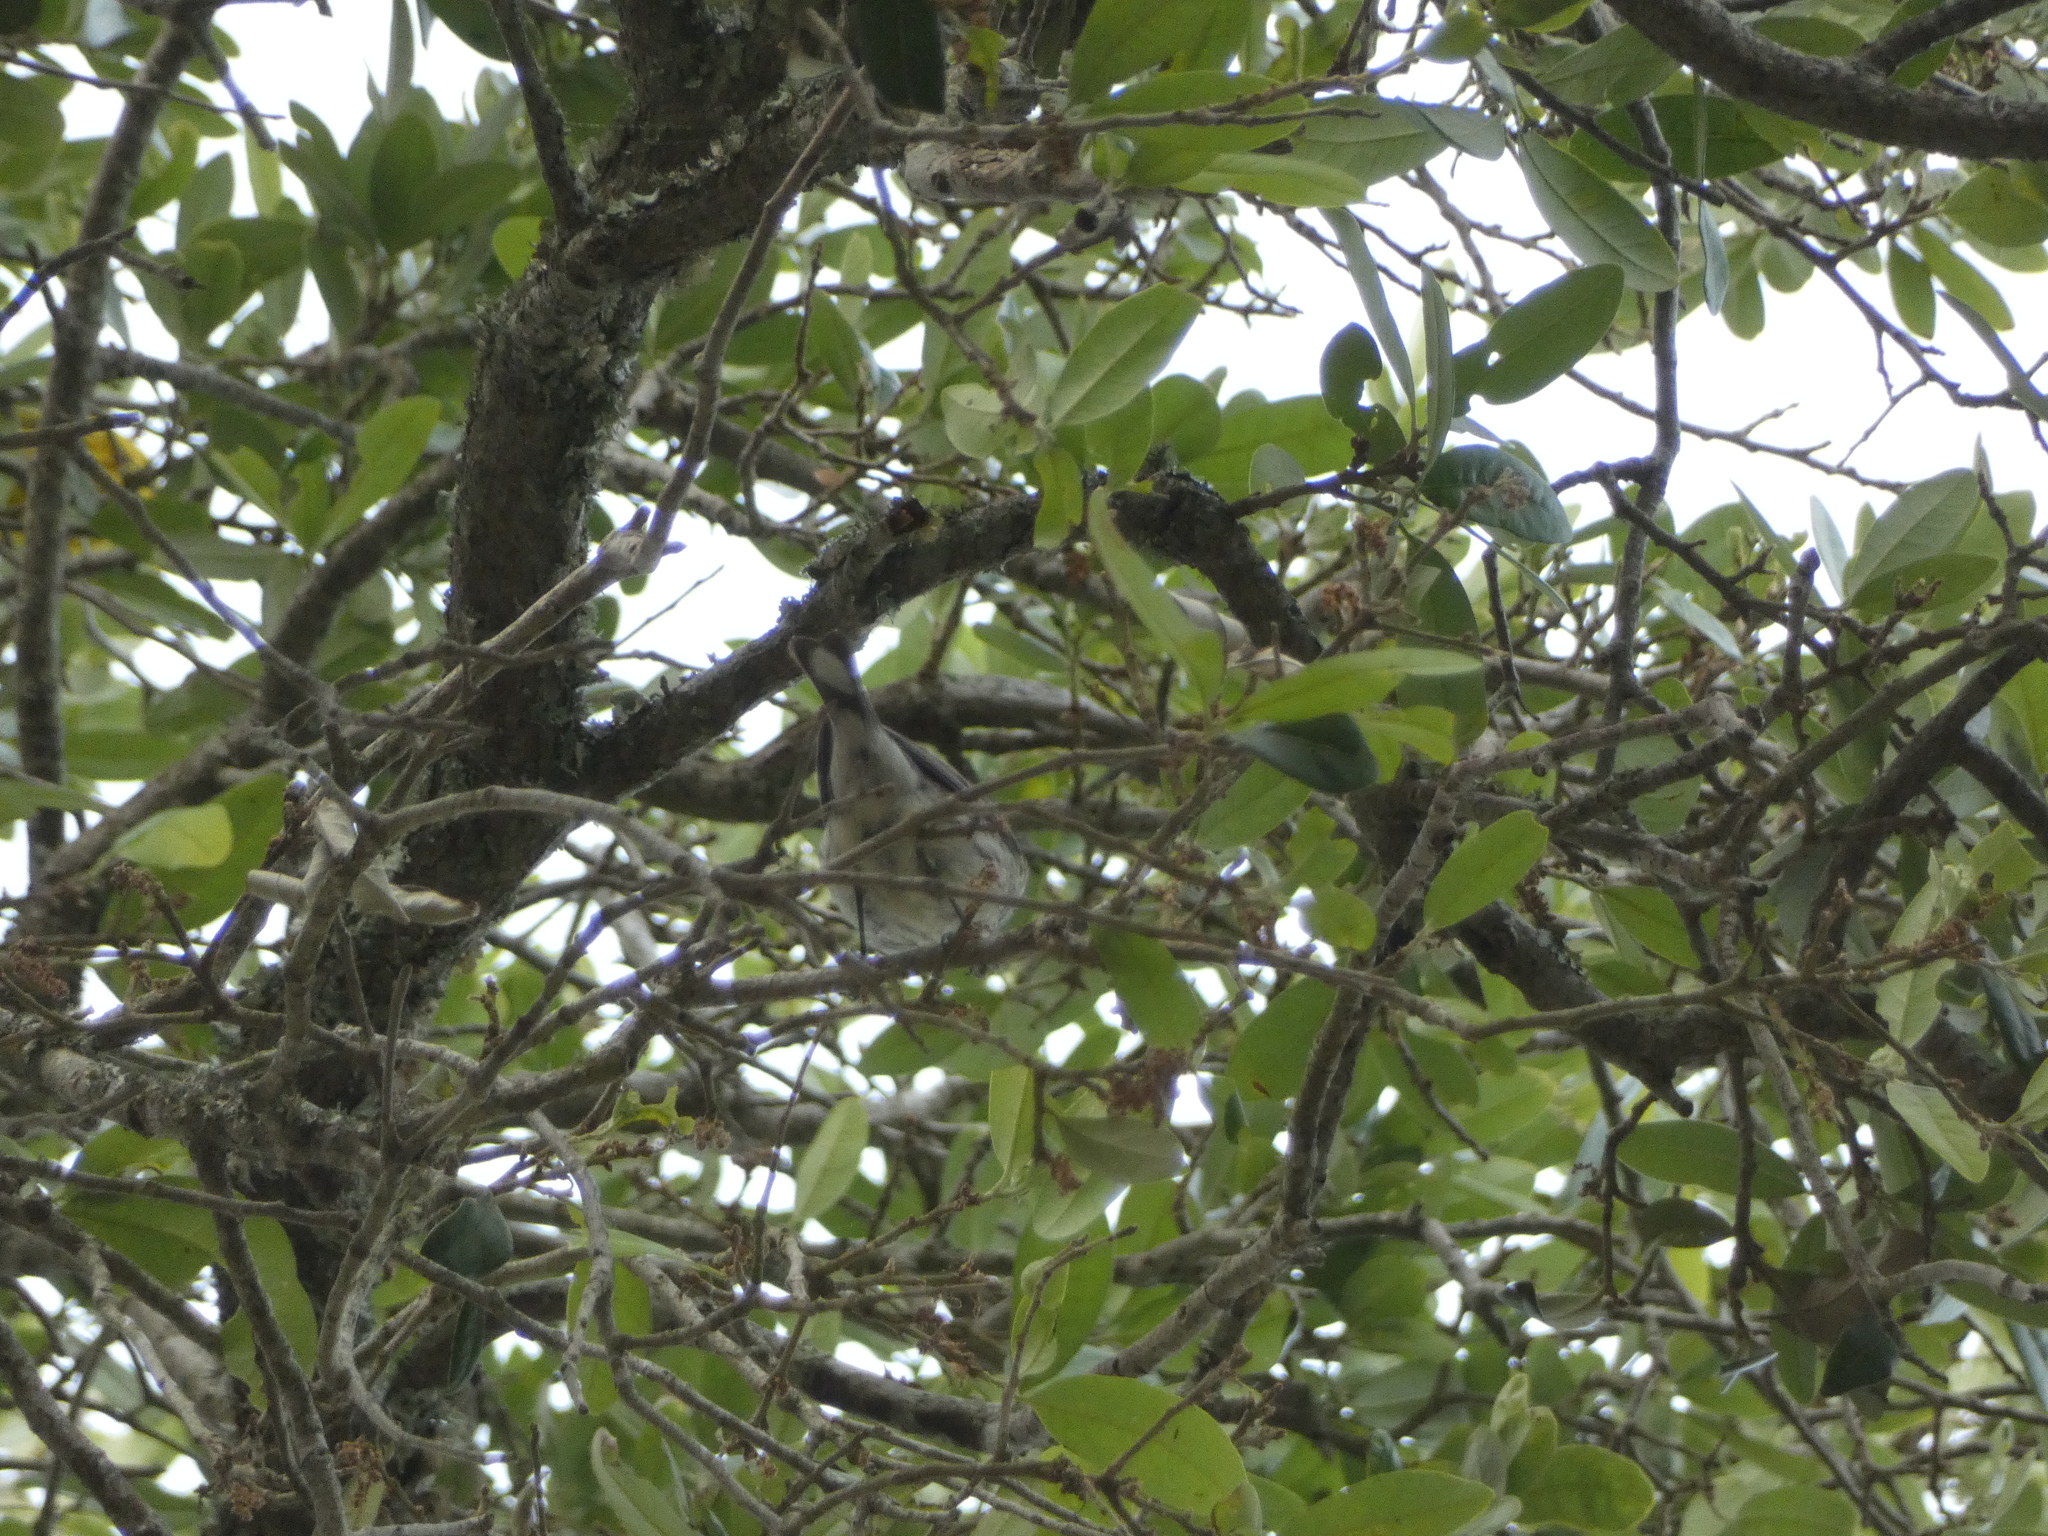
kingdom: Animalia
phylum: Chordata
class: Aves
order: Passeriformes
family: Parulidae
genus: Setophaga
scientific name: Setophaga coronata
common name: Myrtle warbler
